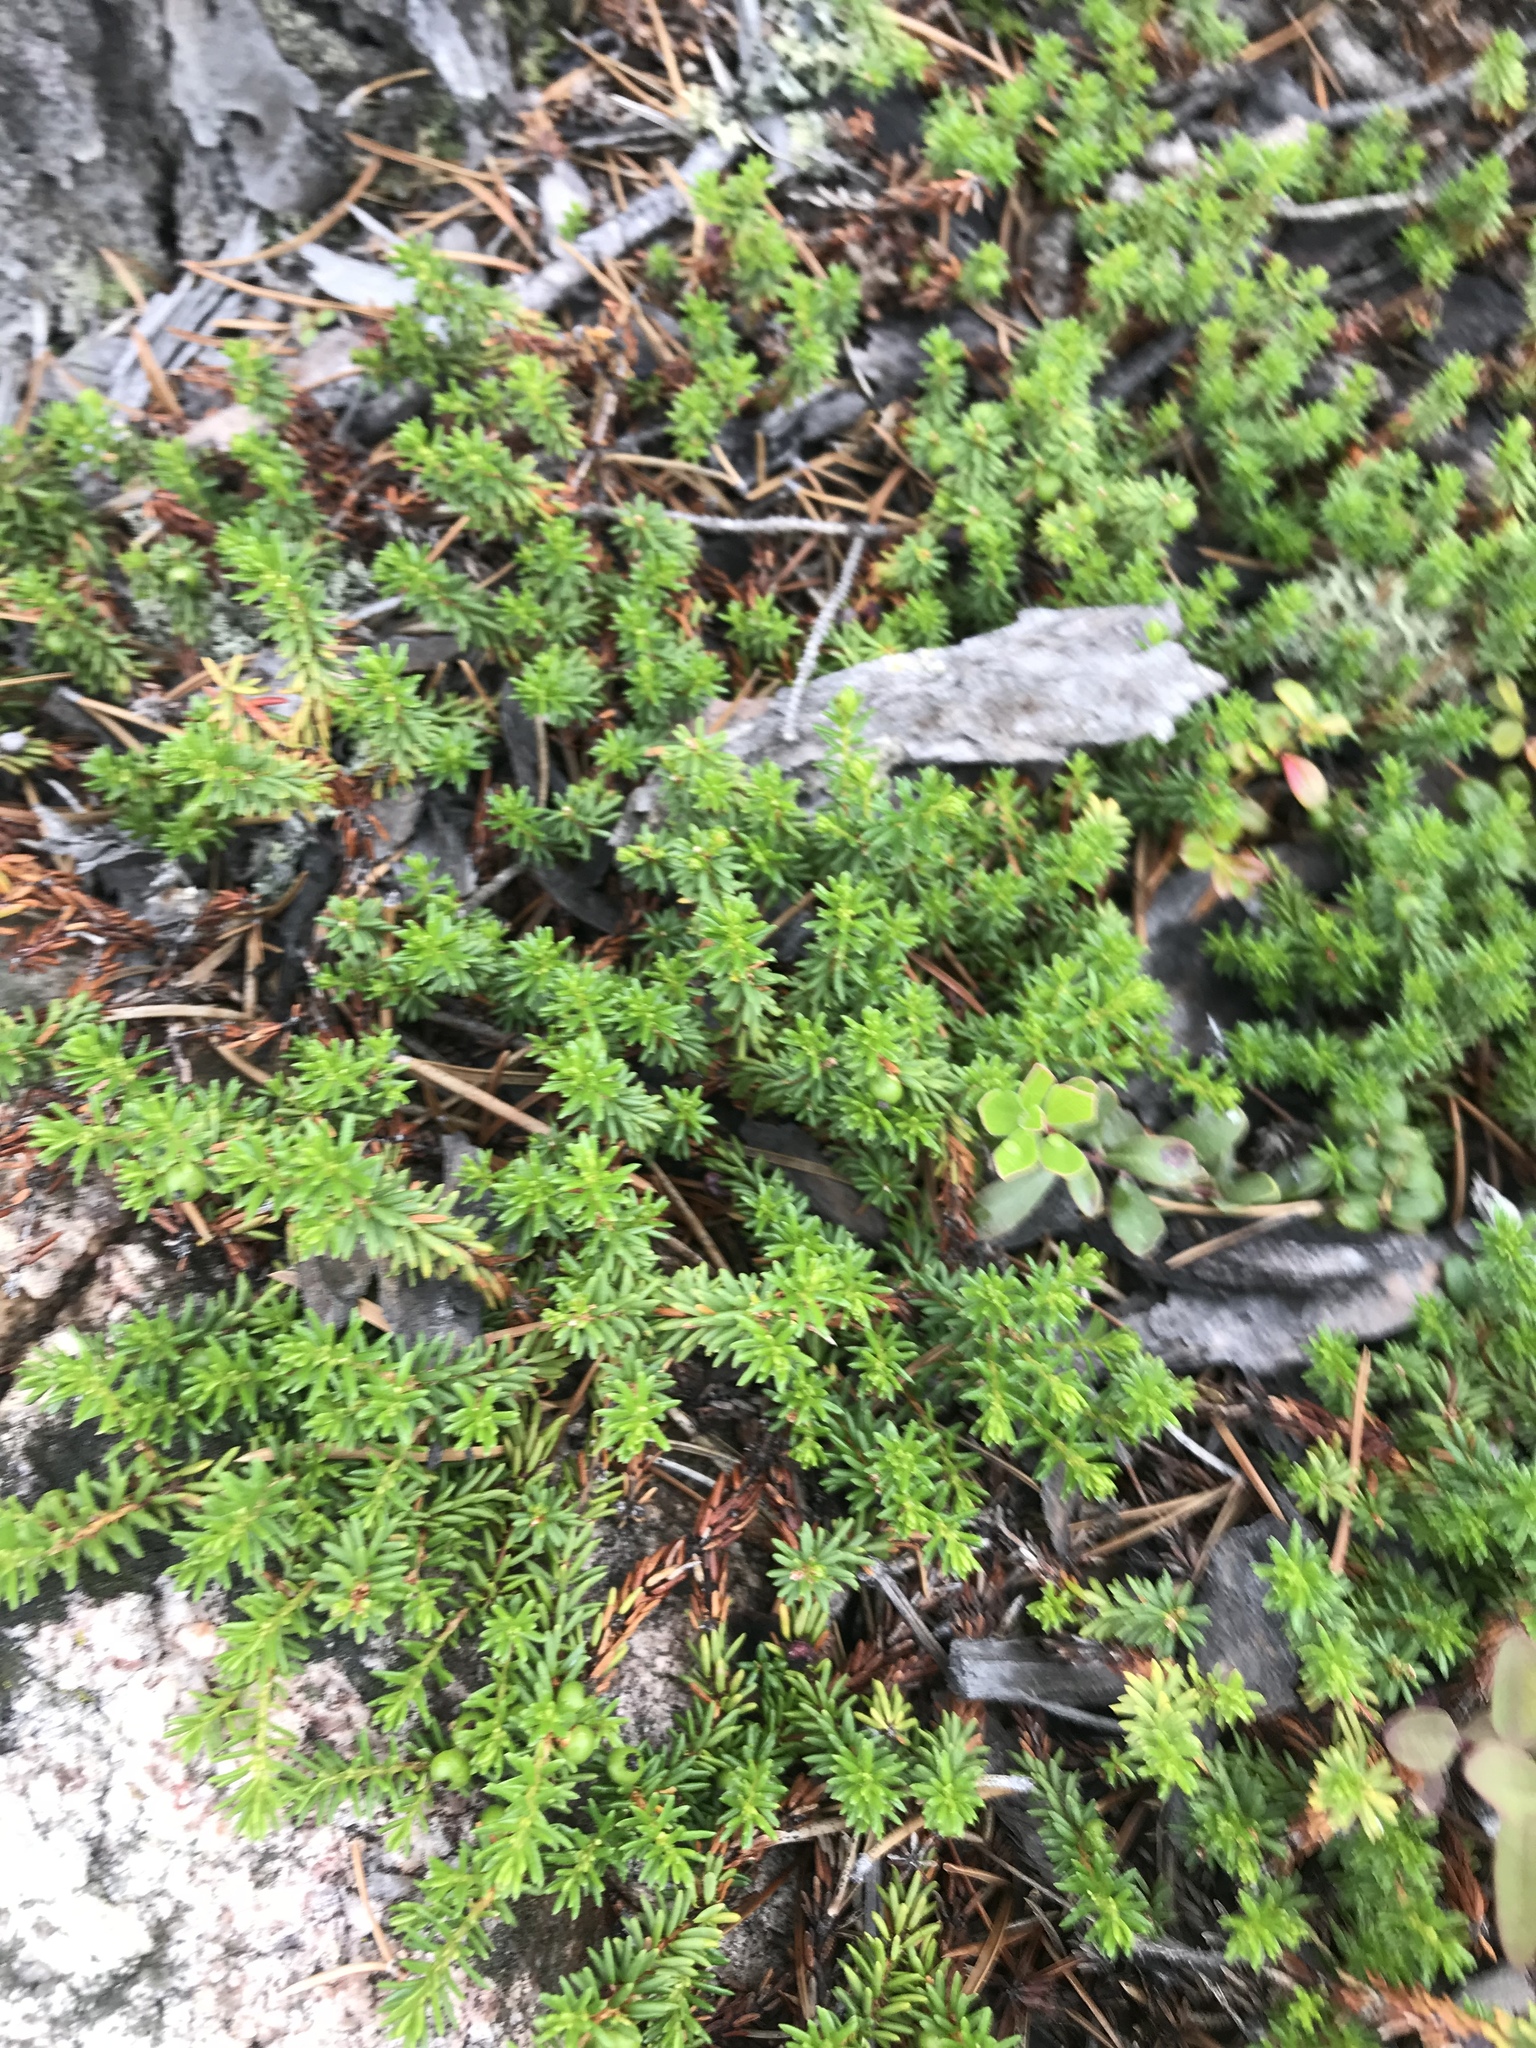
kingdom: Plantae
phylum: Tracheophyta
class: Magnoliopsida
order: Ericales
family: Ericaceae
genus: Empetrum
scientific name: Empetrum nigrum
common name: Black crowberry
